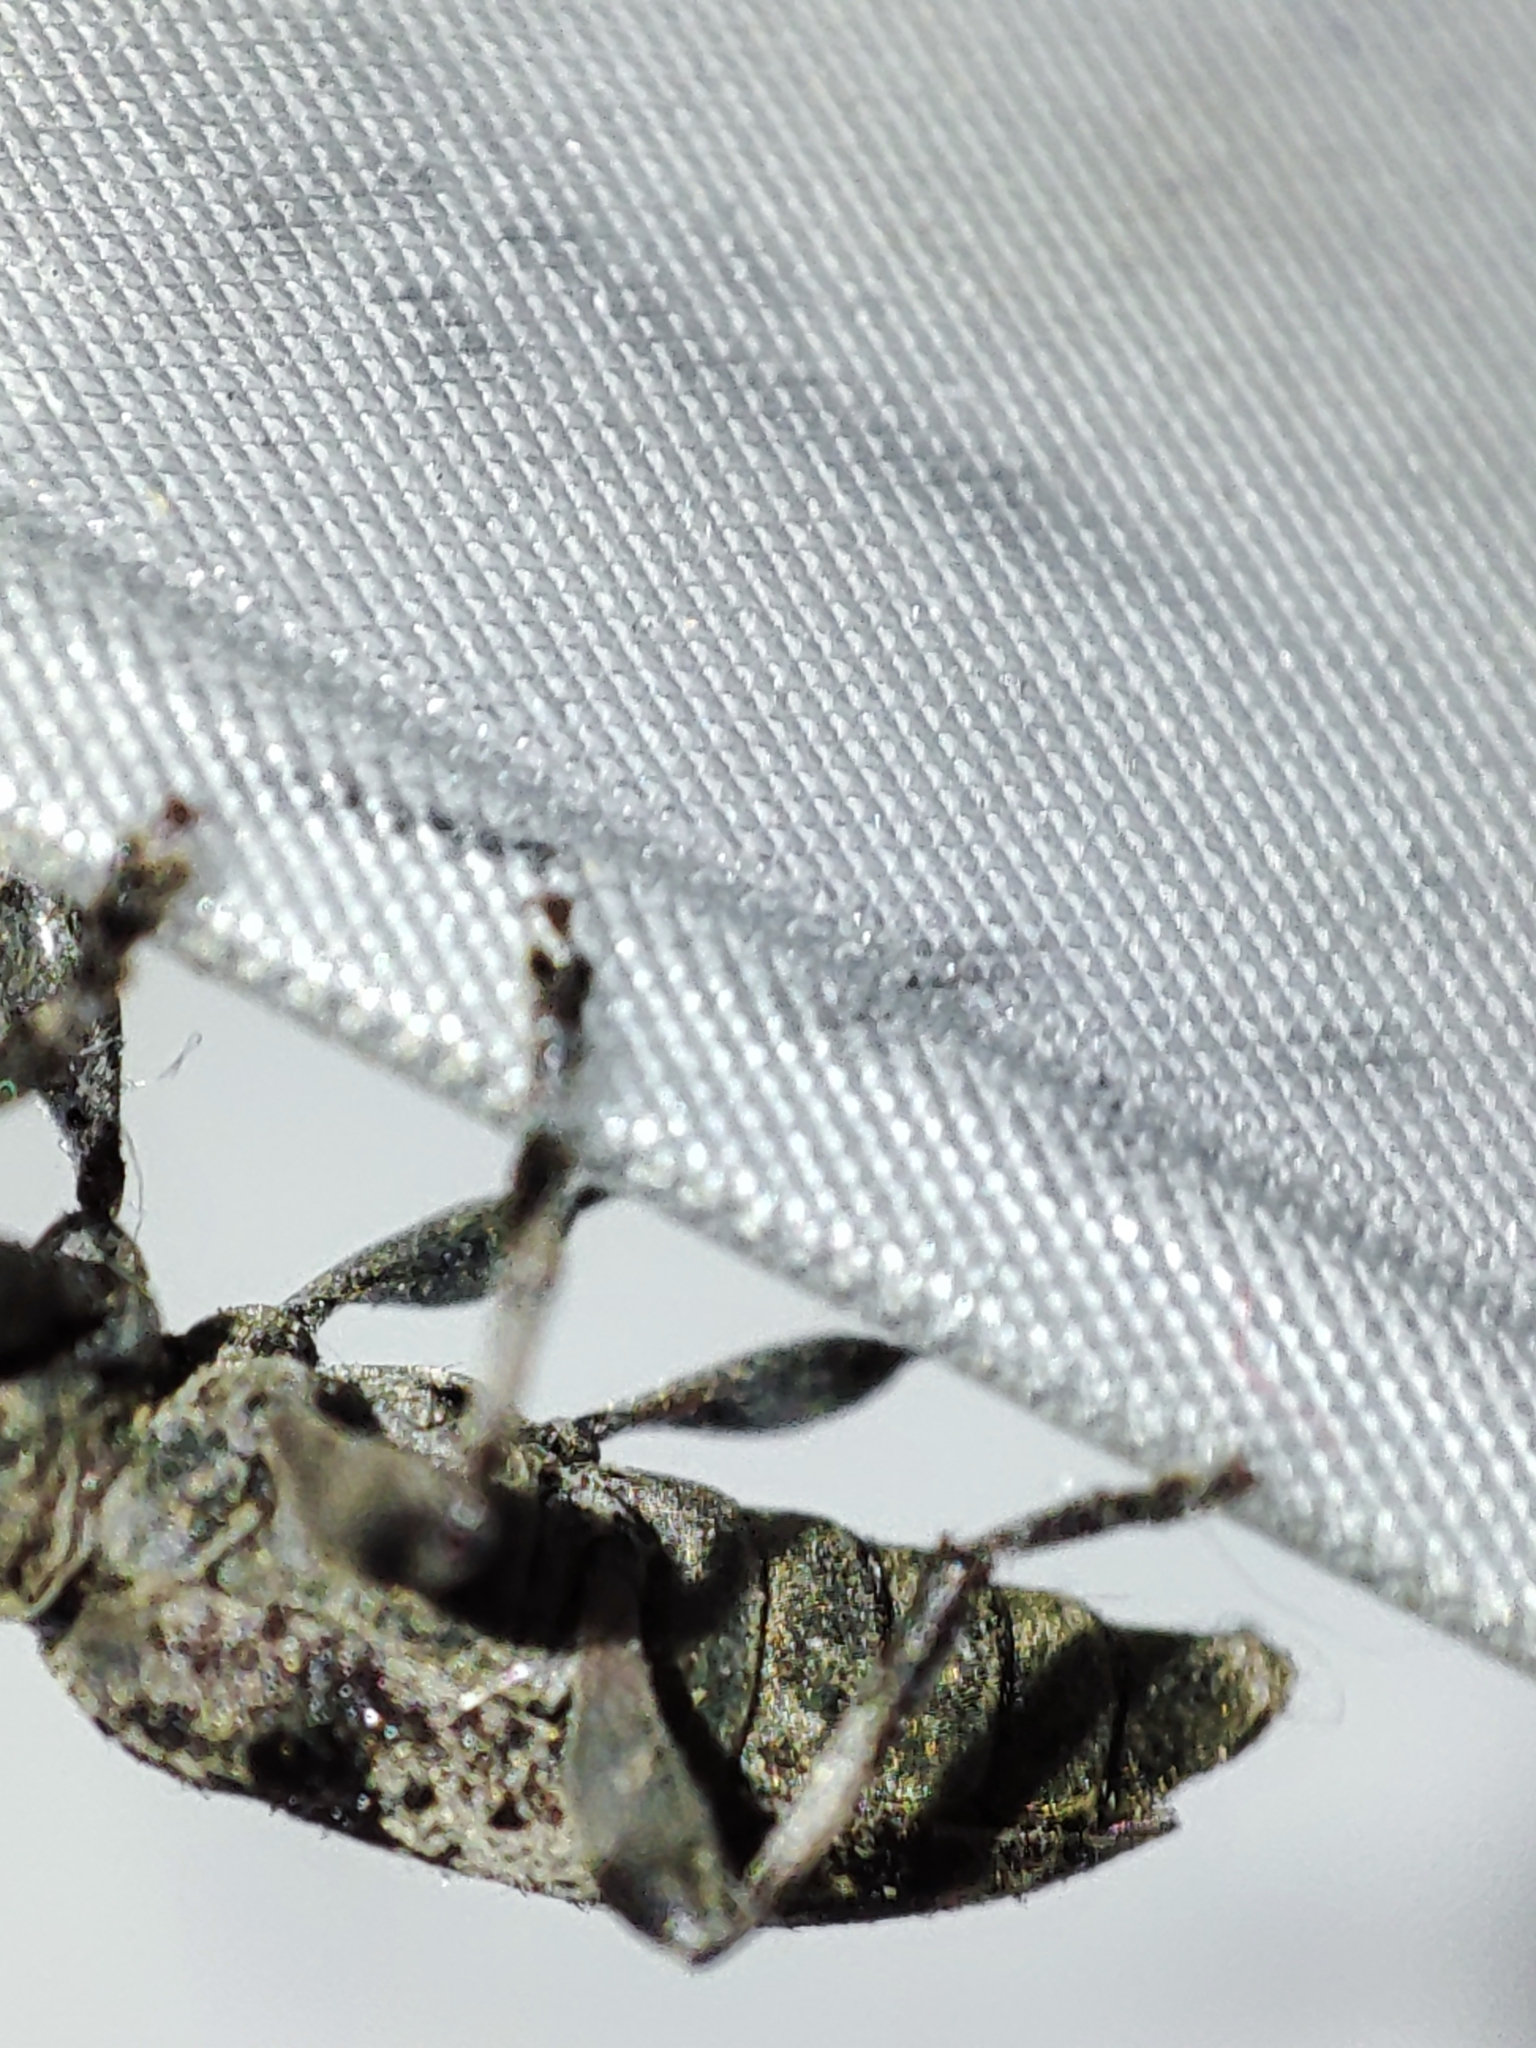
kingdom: Animalia
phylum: Arthropoda
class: Insecta
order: Coleoptera
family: Cerambycidae
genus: Leiopus
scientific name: Leiopus
